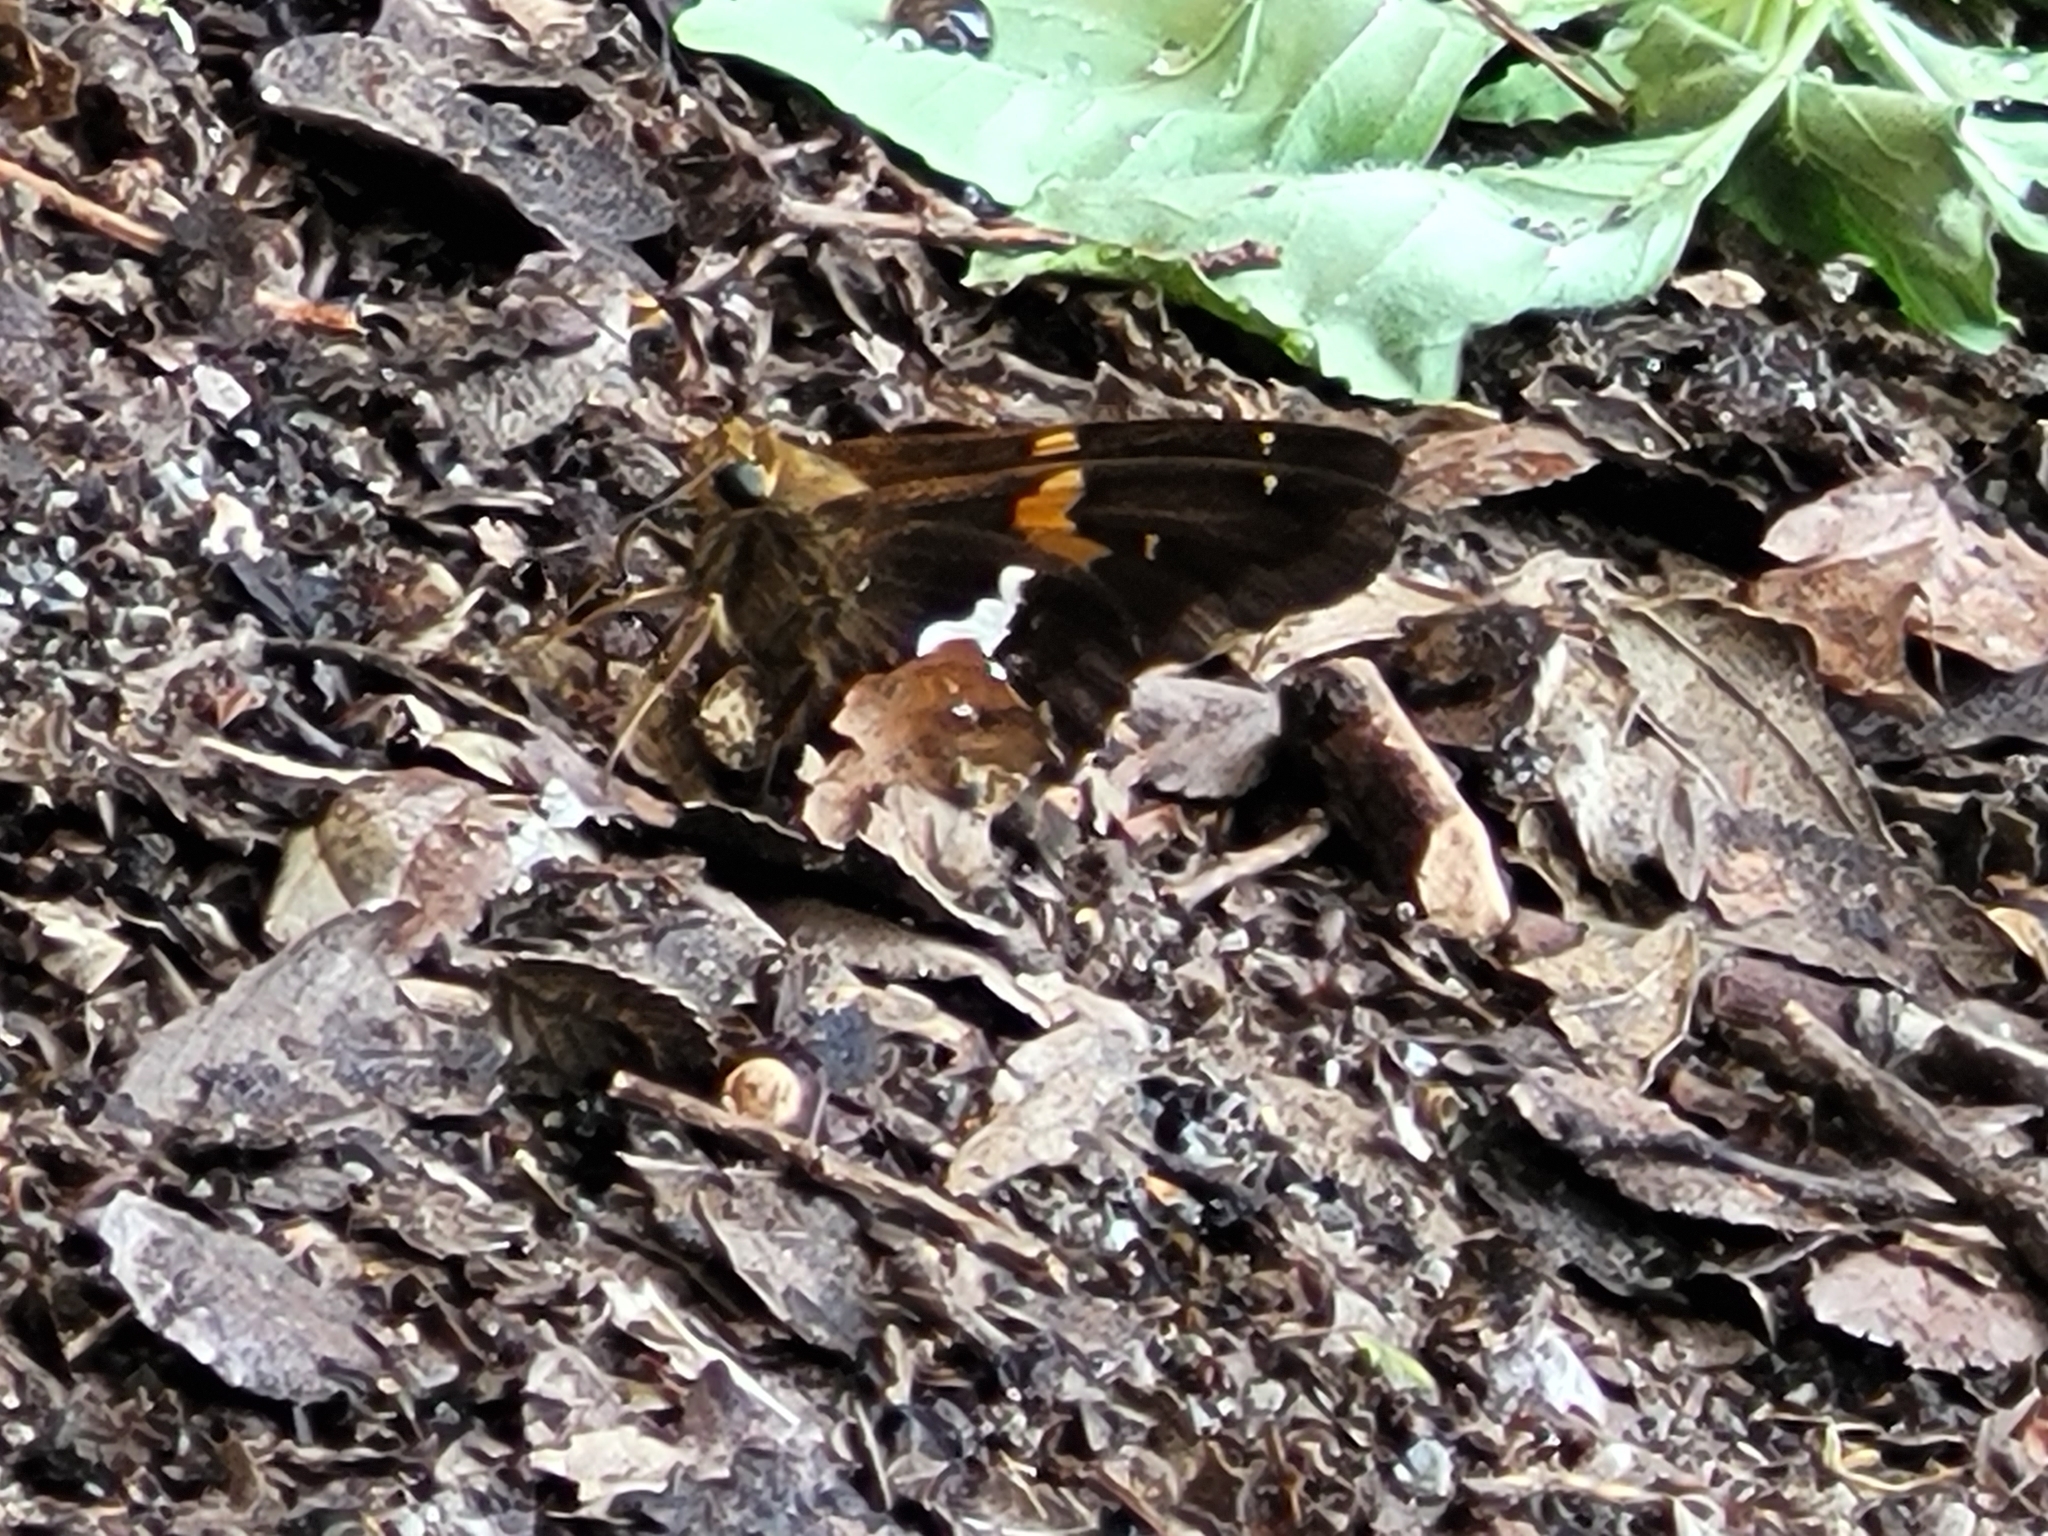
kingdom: Animalia
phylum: Arthropoda
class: Insecta
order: Lepidoptera
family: Hesperiidae
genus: Epargyreus
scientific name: Epargyreus clarus
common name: Silver-spotted skipper
